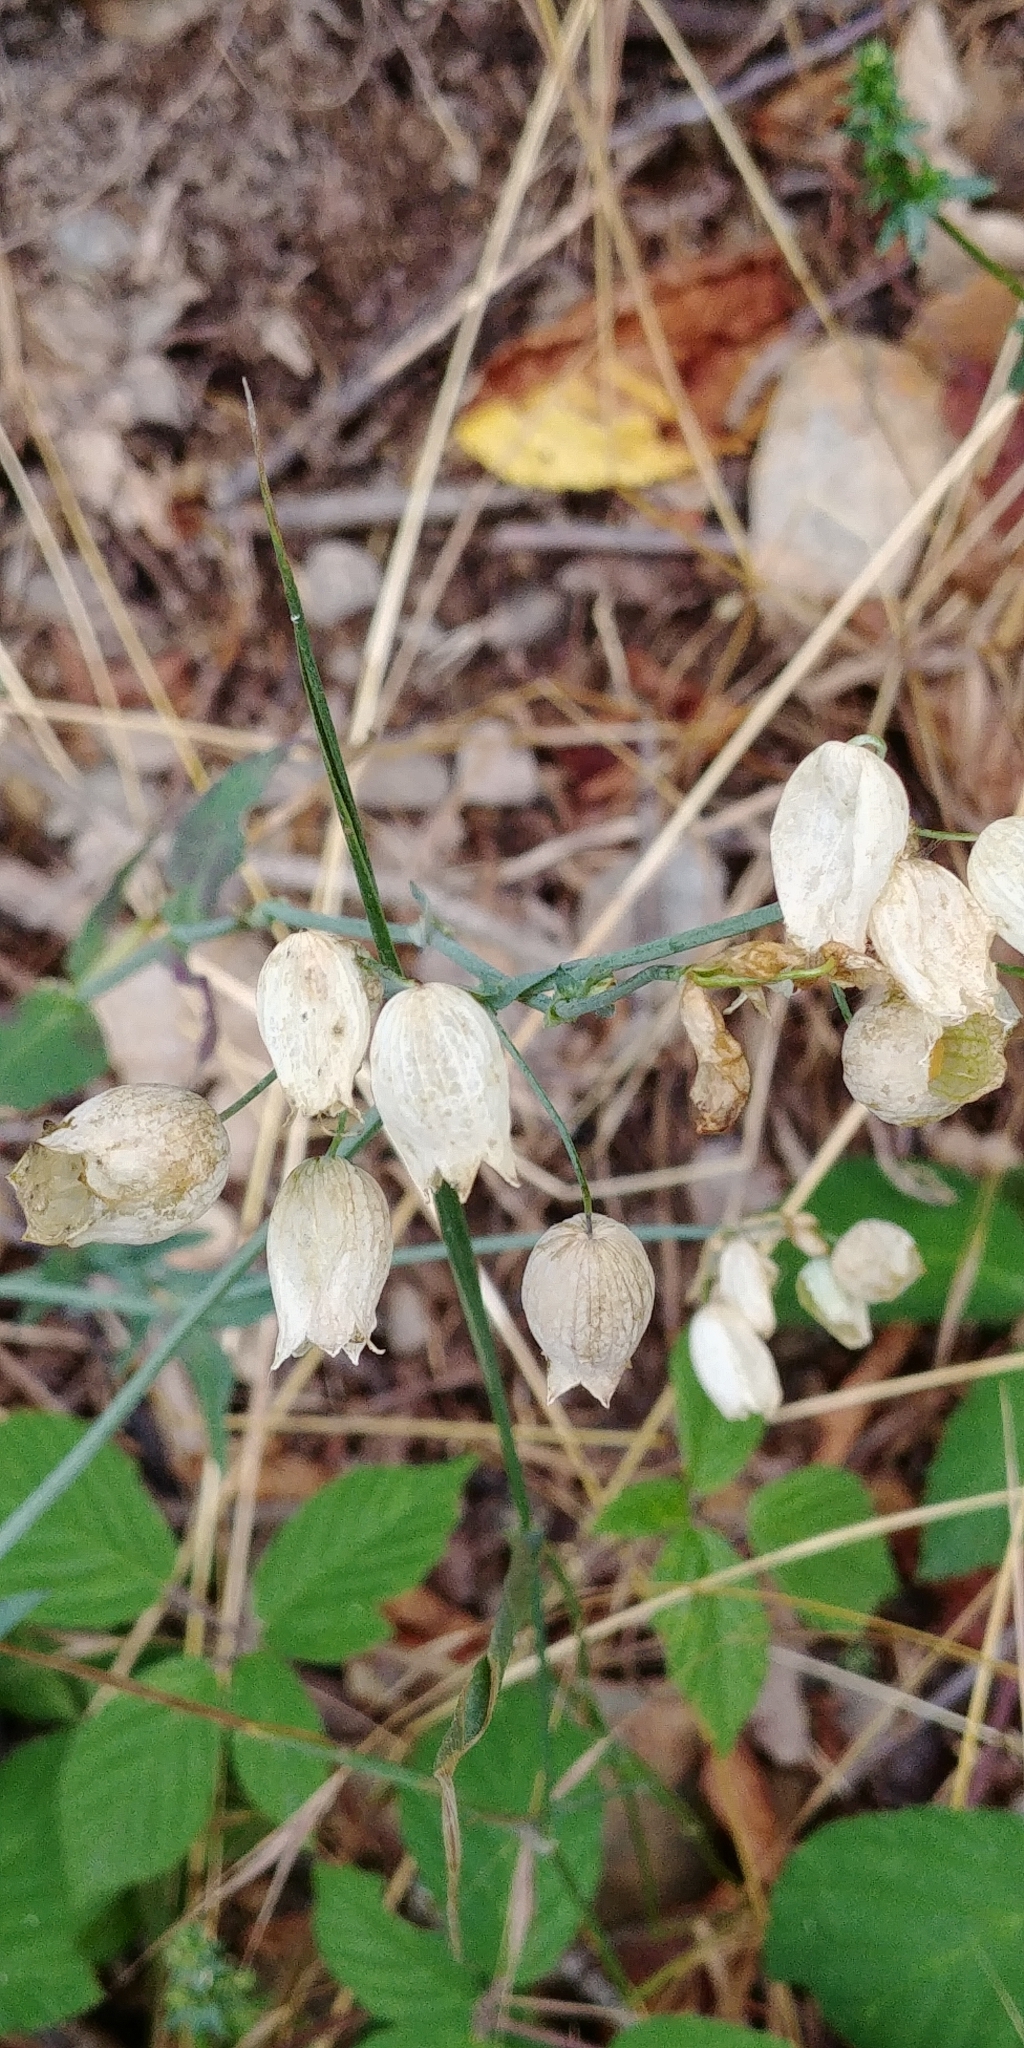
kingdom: Plantae
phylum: Tracheophyta
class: Magnoliopsida
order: Caryophyllales
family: Caryophyllaceae
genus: Silene
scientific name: Silene vulgaris
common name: Bladder campion
